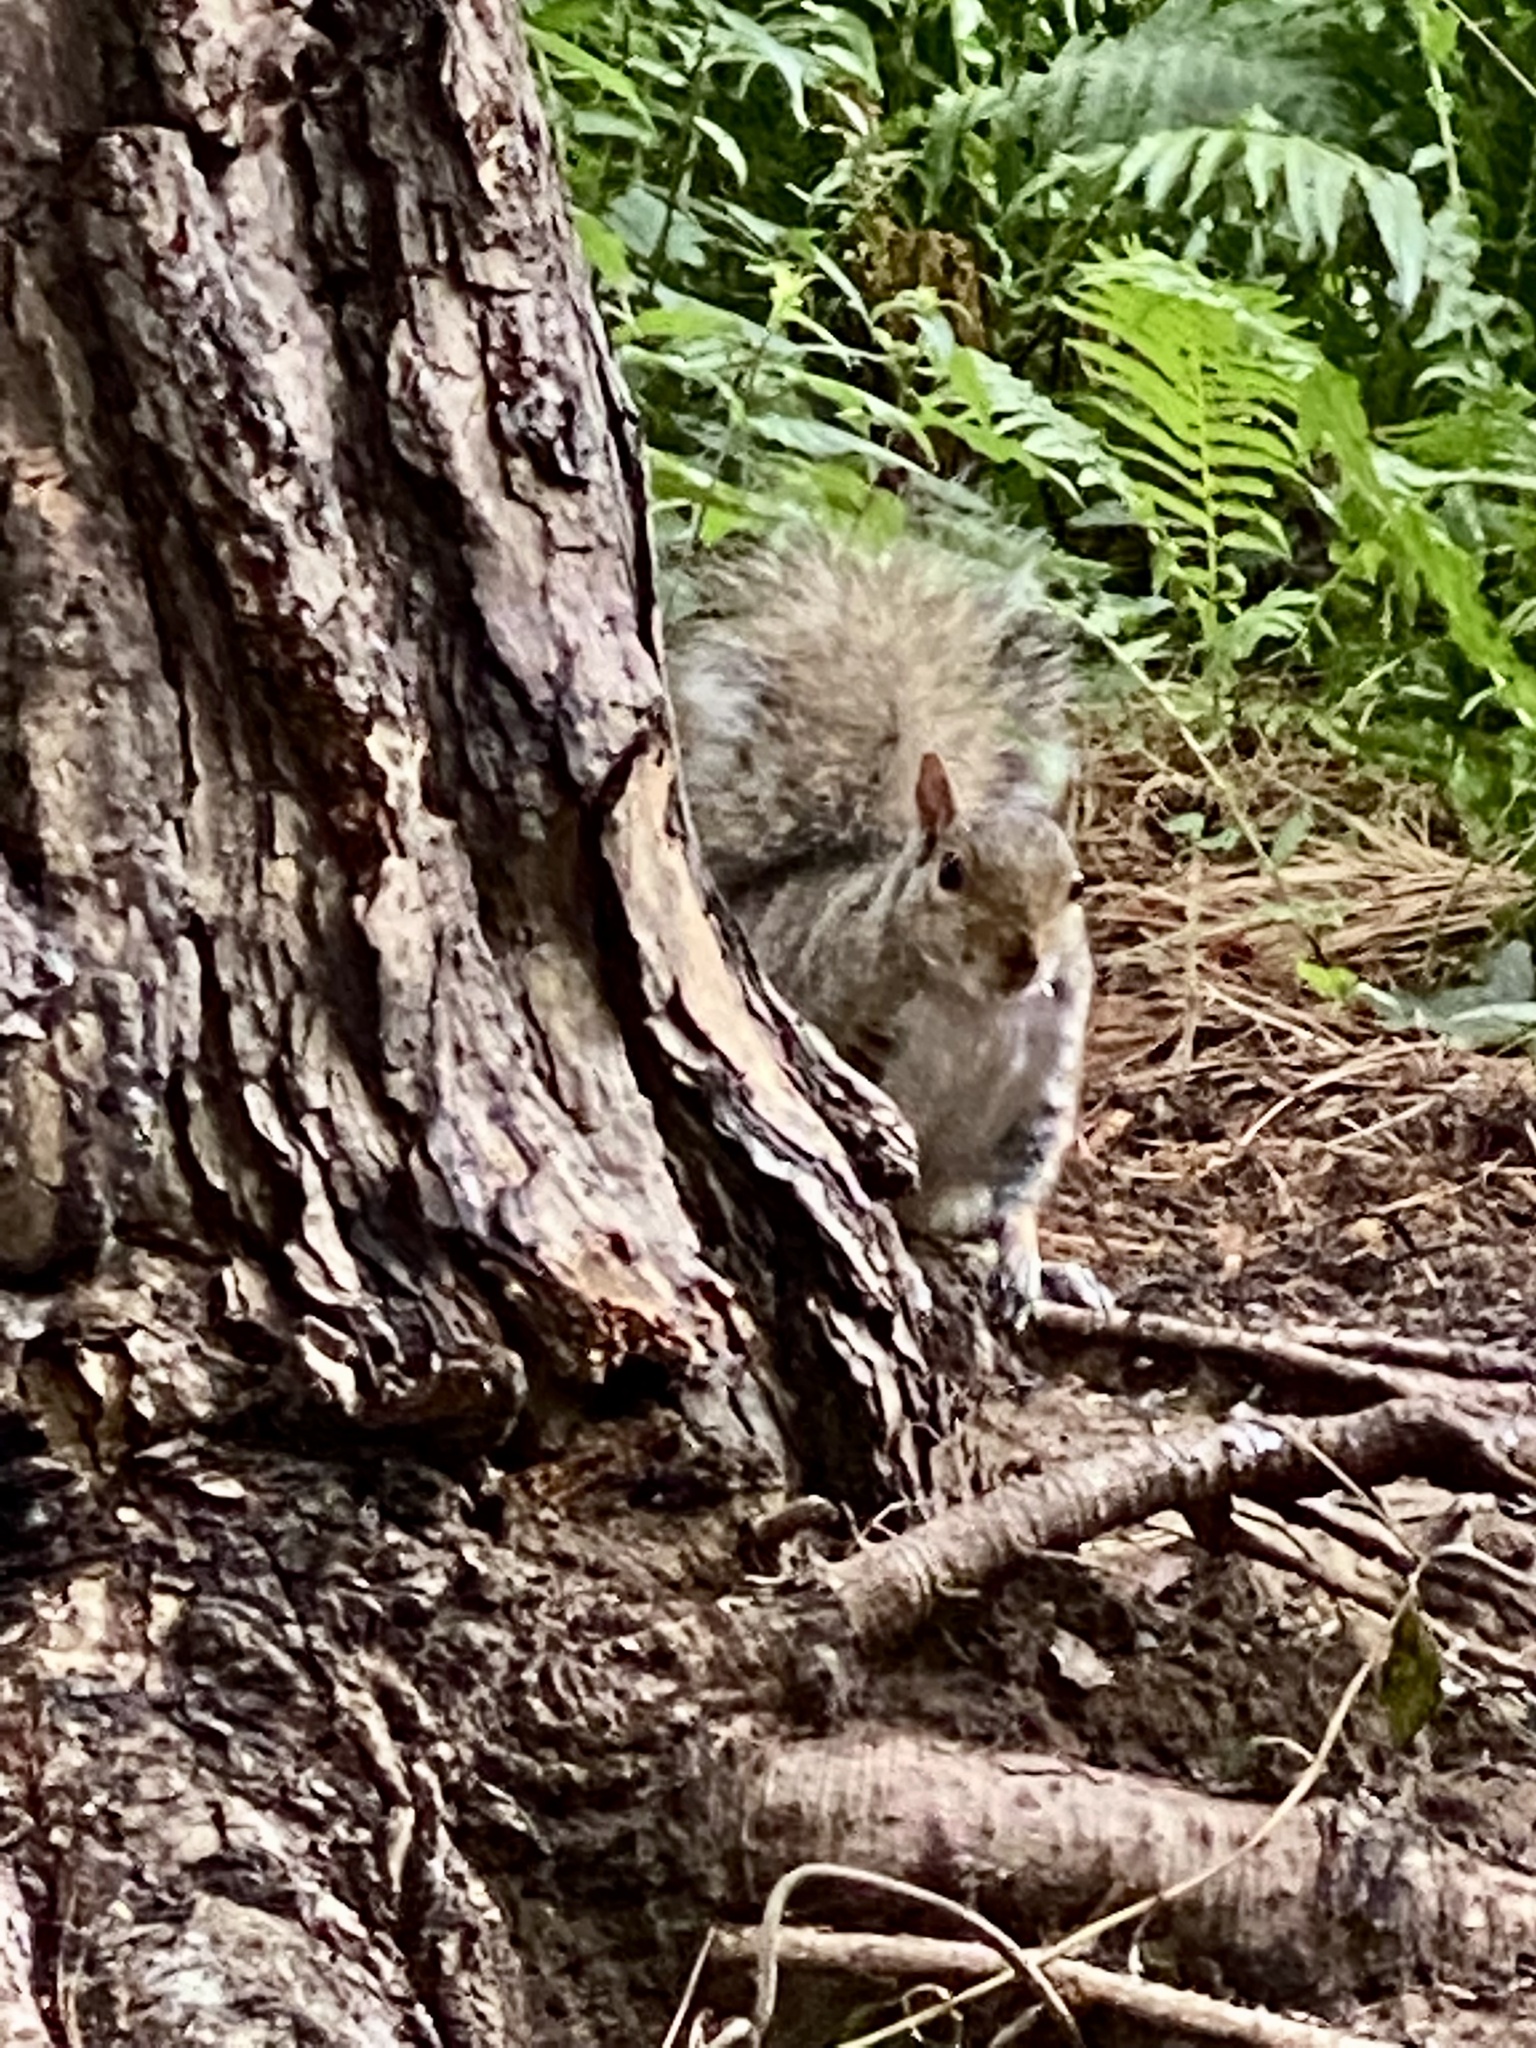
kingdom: Animalia
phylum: Chordata
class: Mammalia
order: Rodentia
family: Sciuridae
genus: Sciurus
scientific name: Sciurus carolinensis
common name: Eastern gray squirrel
